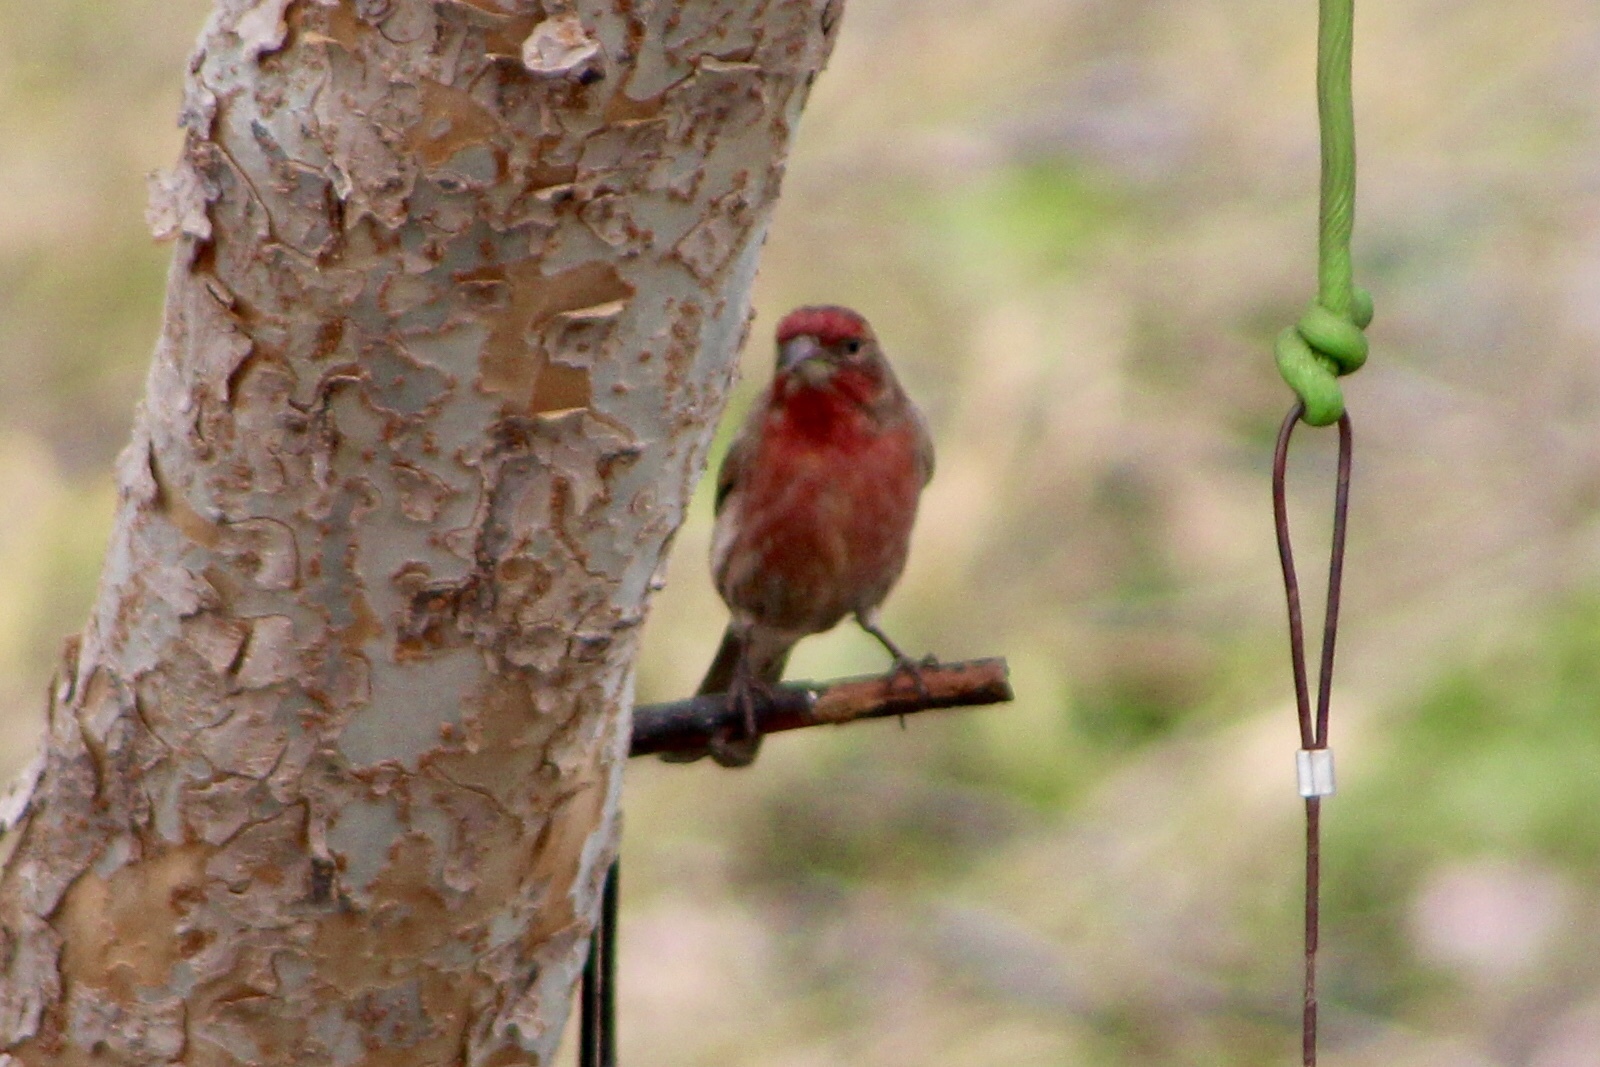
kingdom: Animalia
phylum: Chordata
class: Aves
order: Passeriformes
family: Fringillidae
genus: Haemorhous
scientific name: Haemorhous mexicanus
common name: House finch
